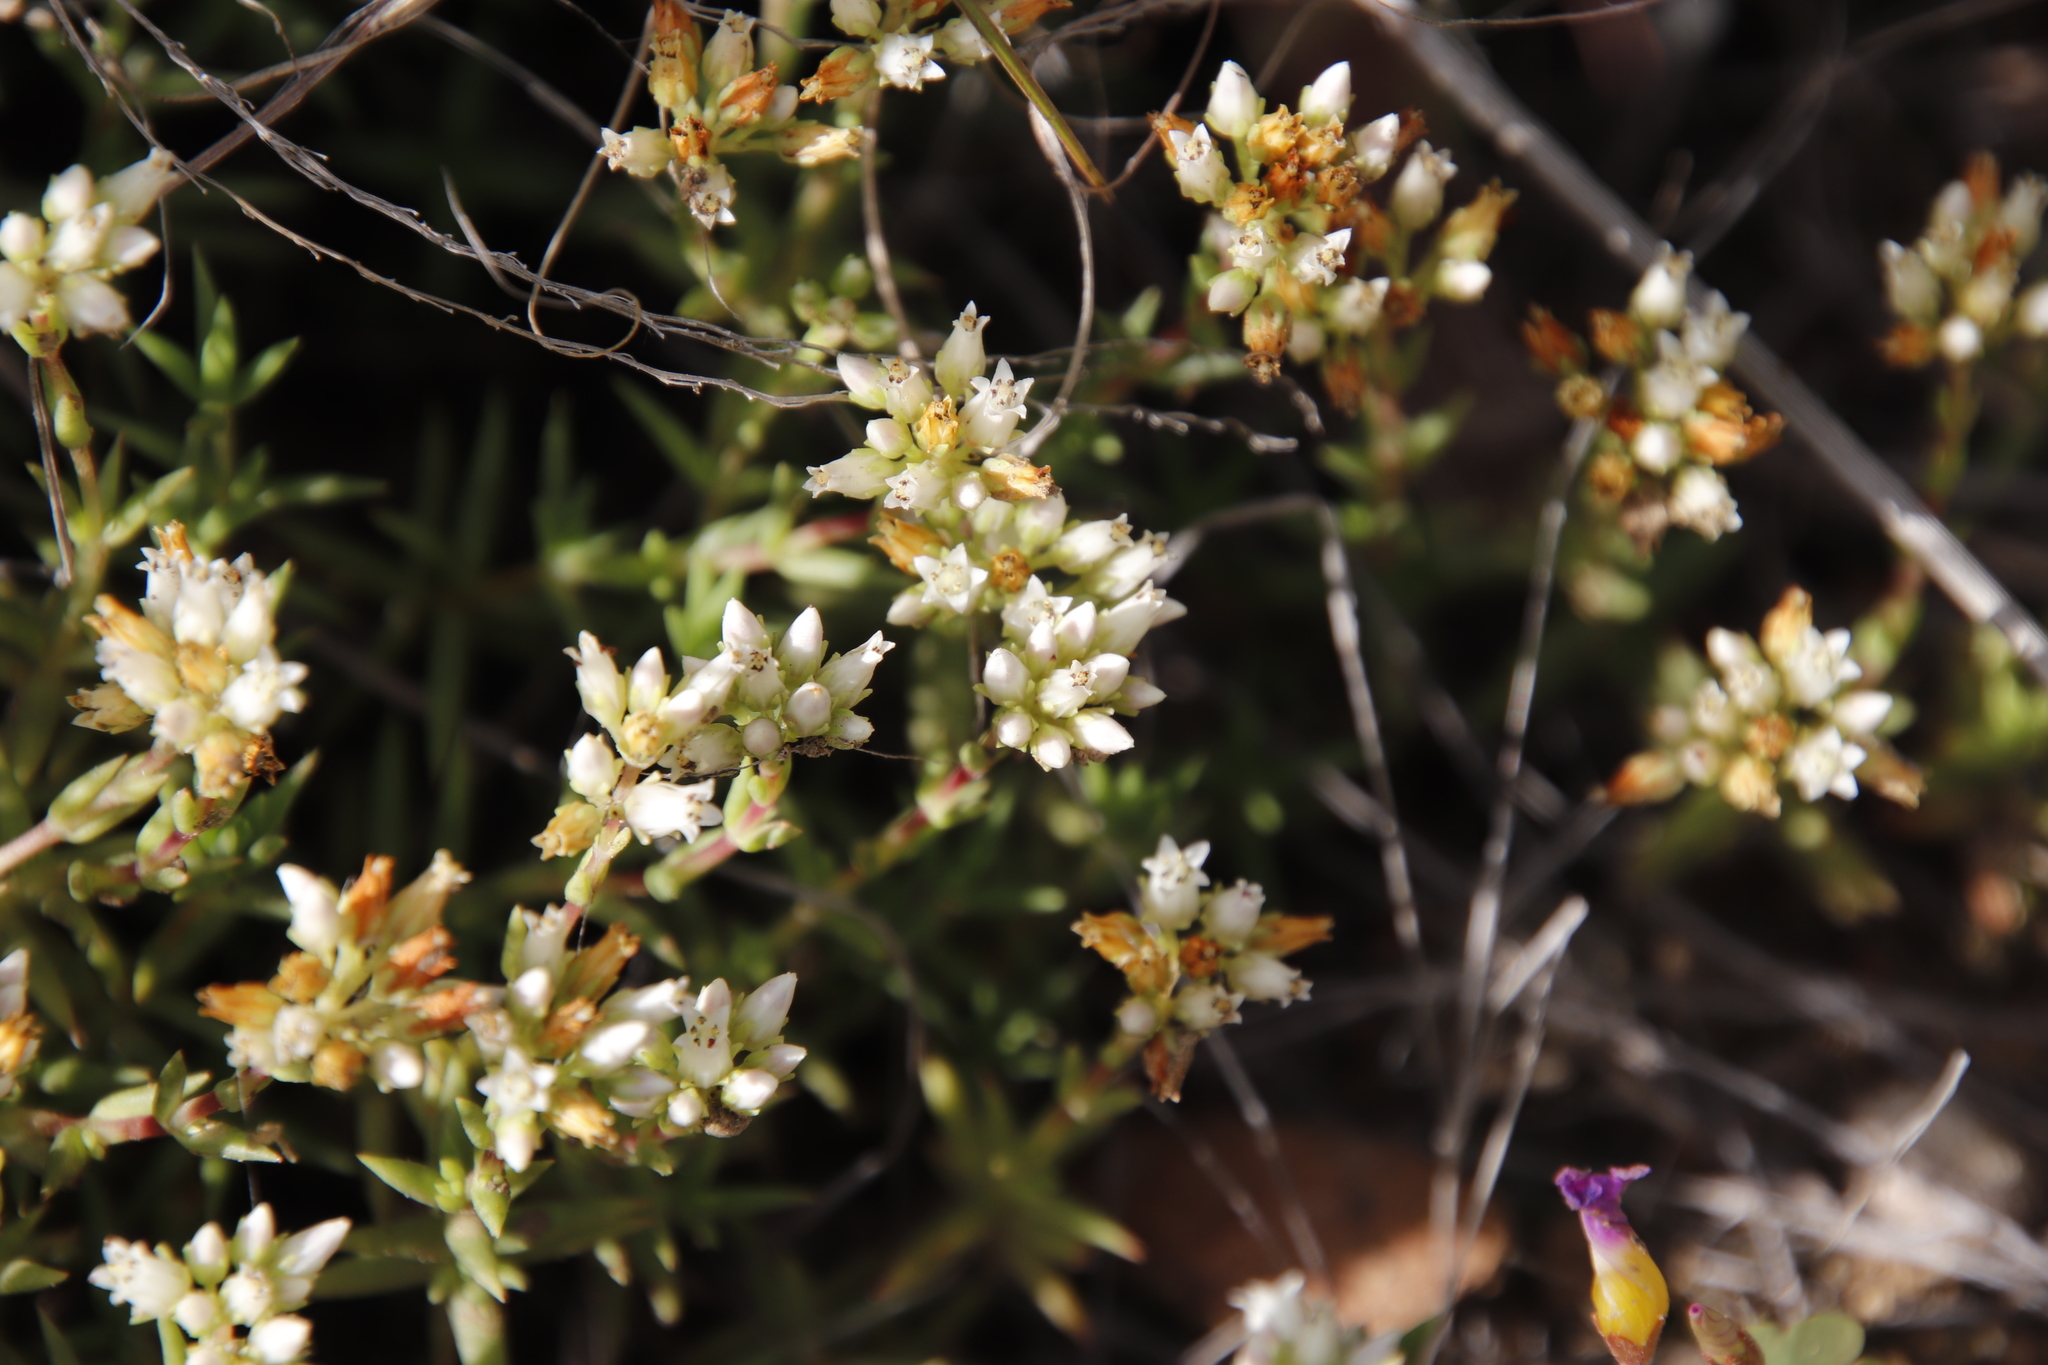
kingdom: Plantae
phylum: Tracheophyta
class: Magnoliopsida
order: Saxifragales
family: Crassulaceae
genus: Crassula
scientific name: Crassula dependens
